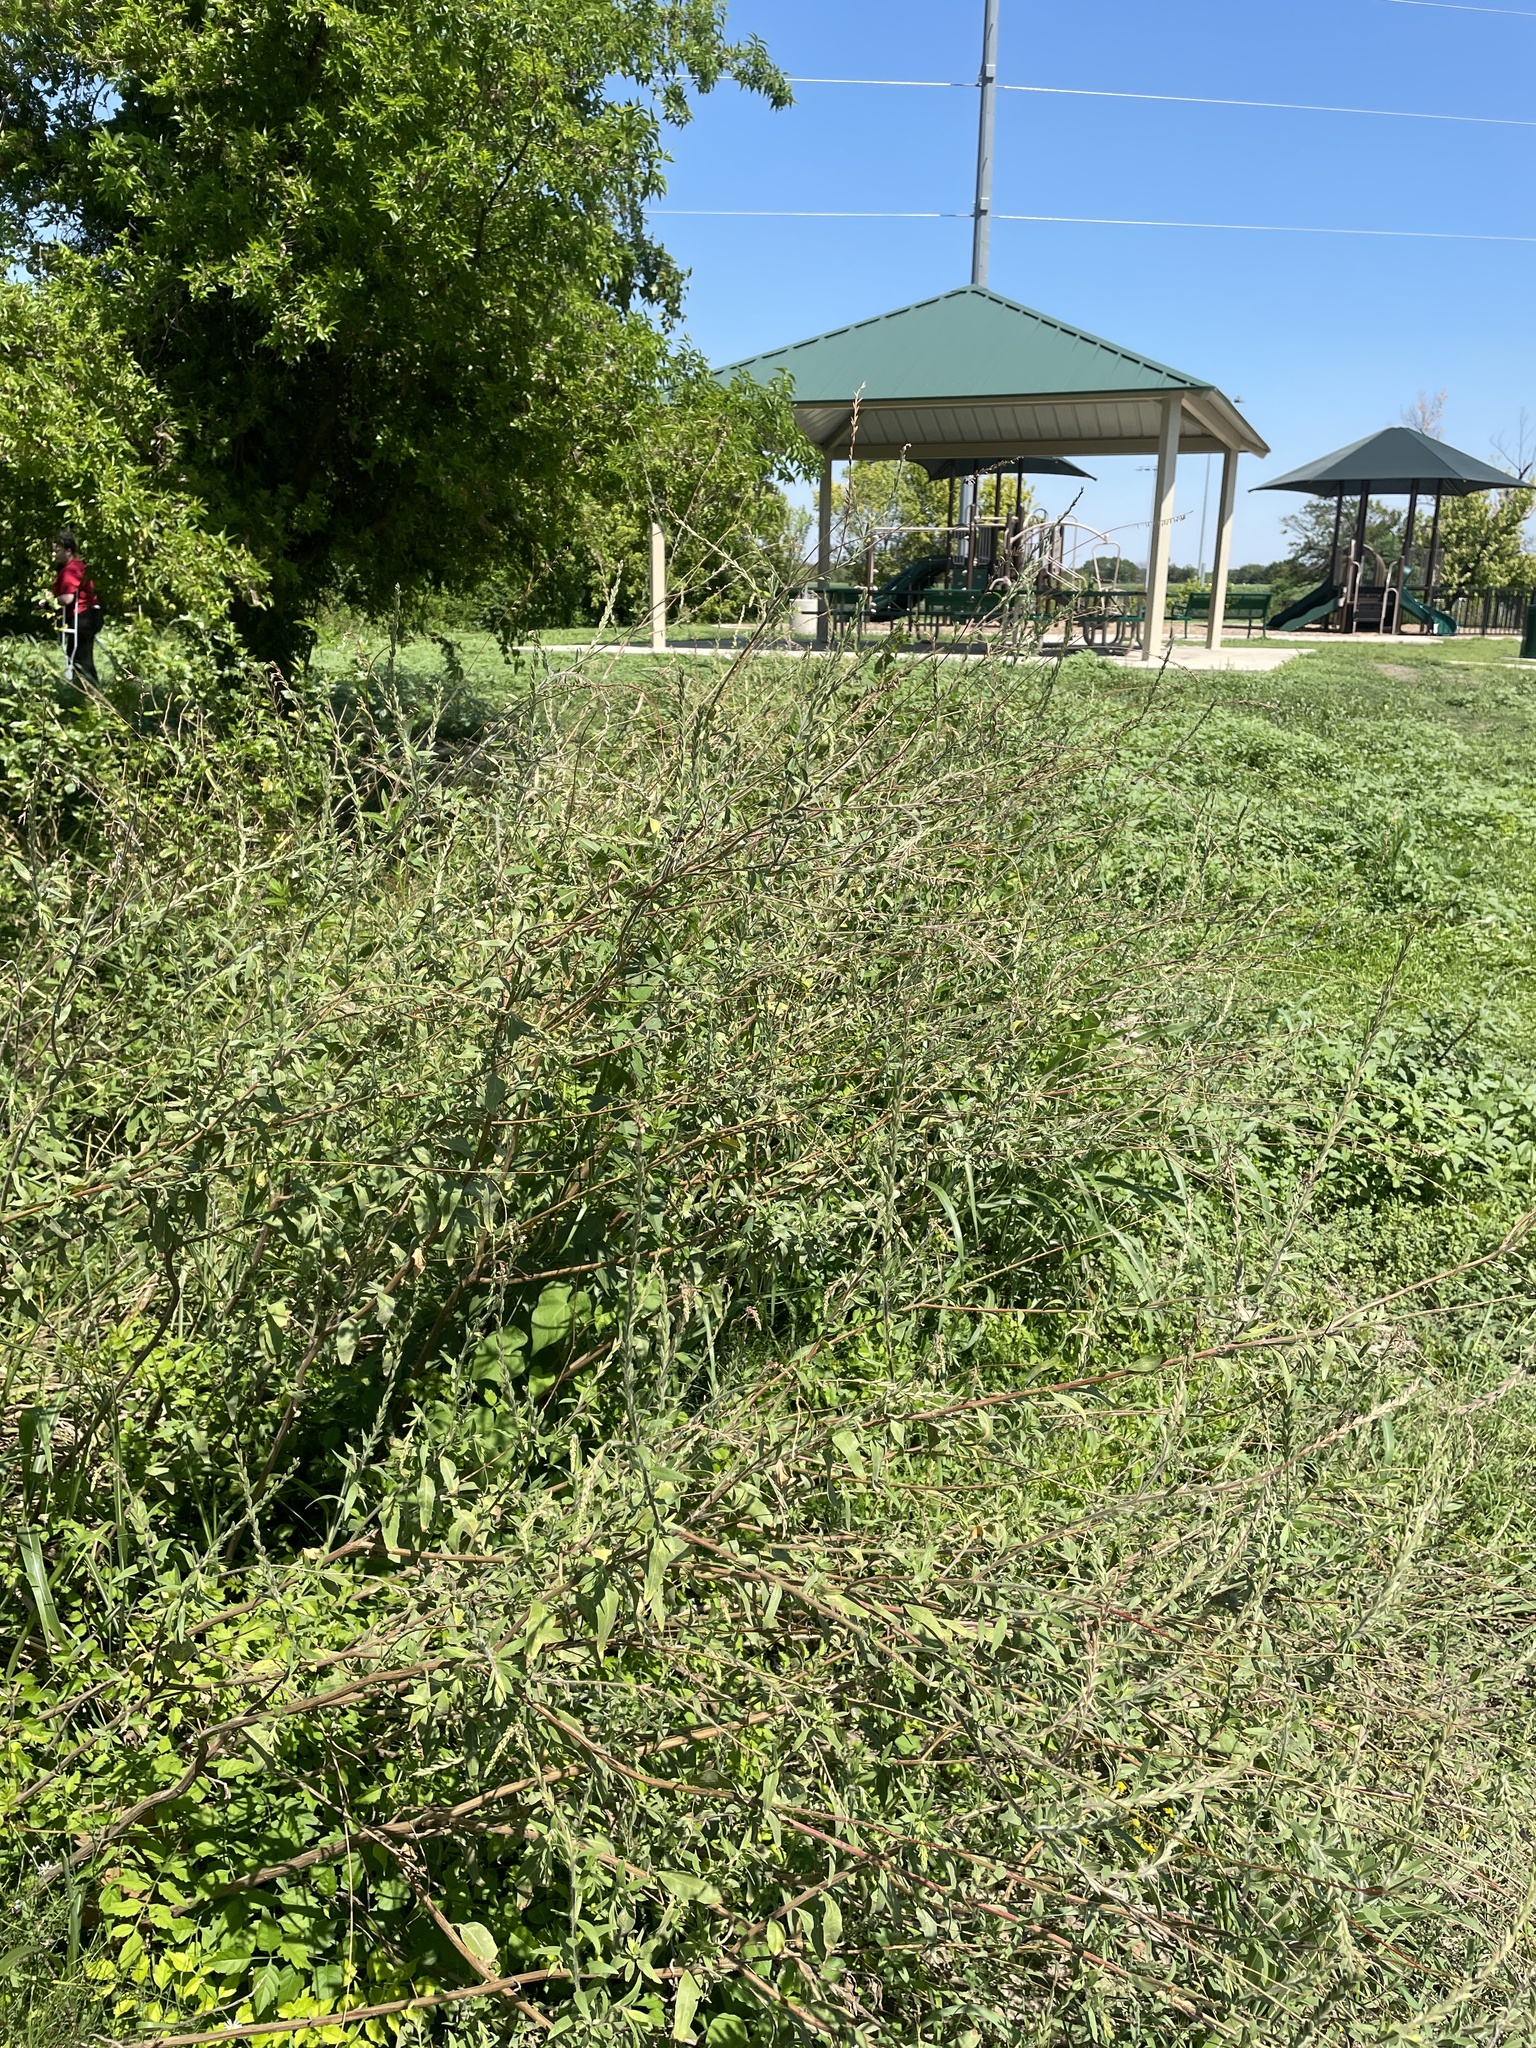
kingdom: Plantae
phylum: Tracheophyta
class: Magnoliopsida
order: Myrtales
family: Onagraceae
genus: Oenothera
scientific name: Oenothera curtiflora
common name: Velvetweed
